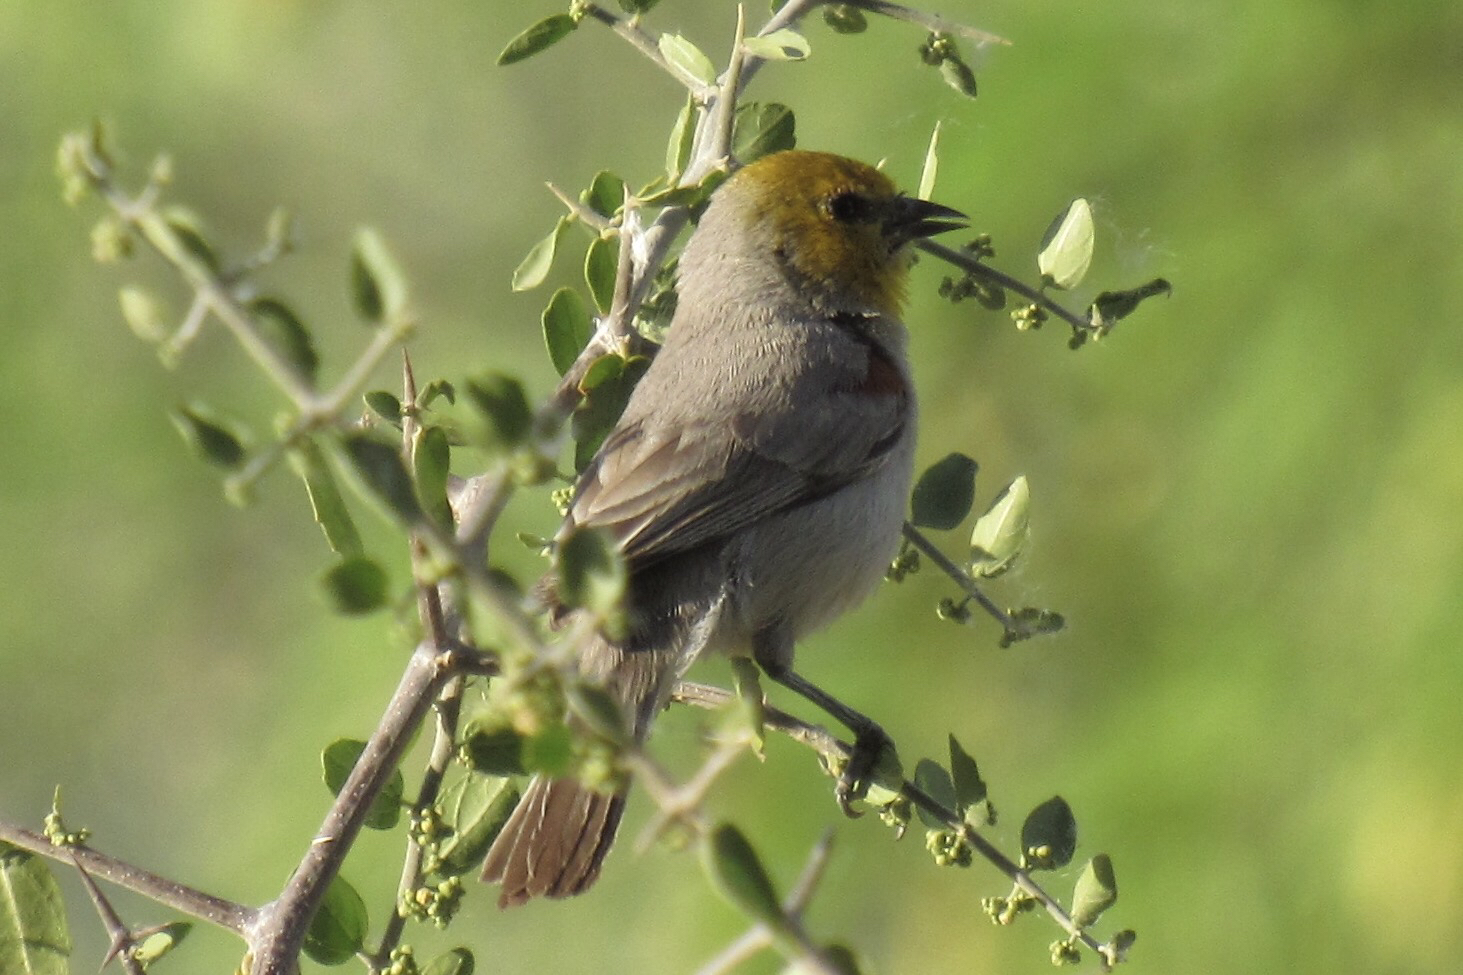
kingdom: Animalia
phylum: Chordata
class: Aves
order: Passeriformes
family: Remizidae
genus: Auriparus
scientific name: Auriparus flaviceps
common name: Verdin
